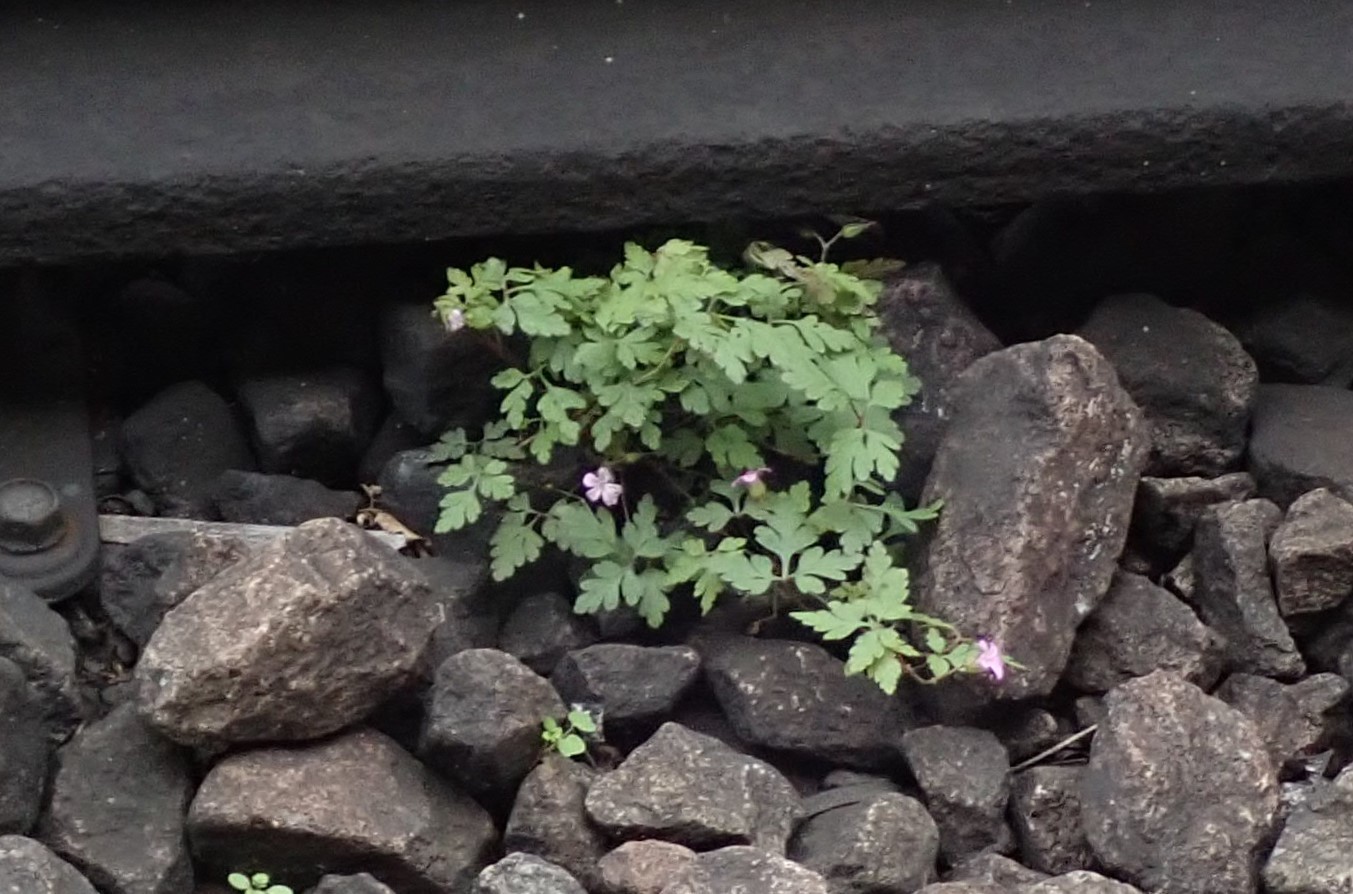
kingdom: Plantae
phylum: Tracheophyta
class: Magnoliopsida
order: Geraniales
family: Geraniaceae
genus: Geranium
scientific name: Geranium robertianum
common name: Herb-robert
